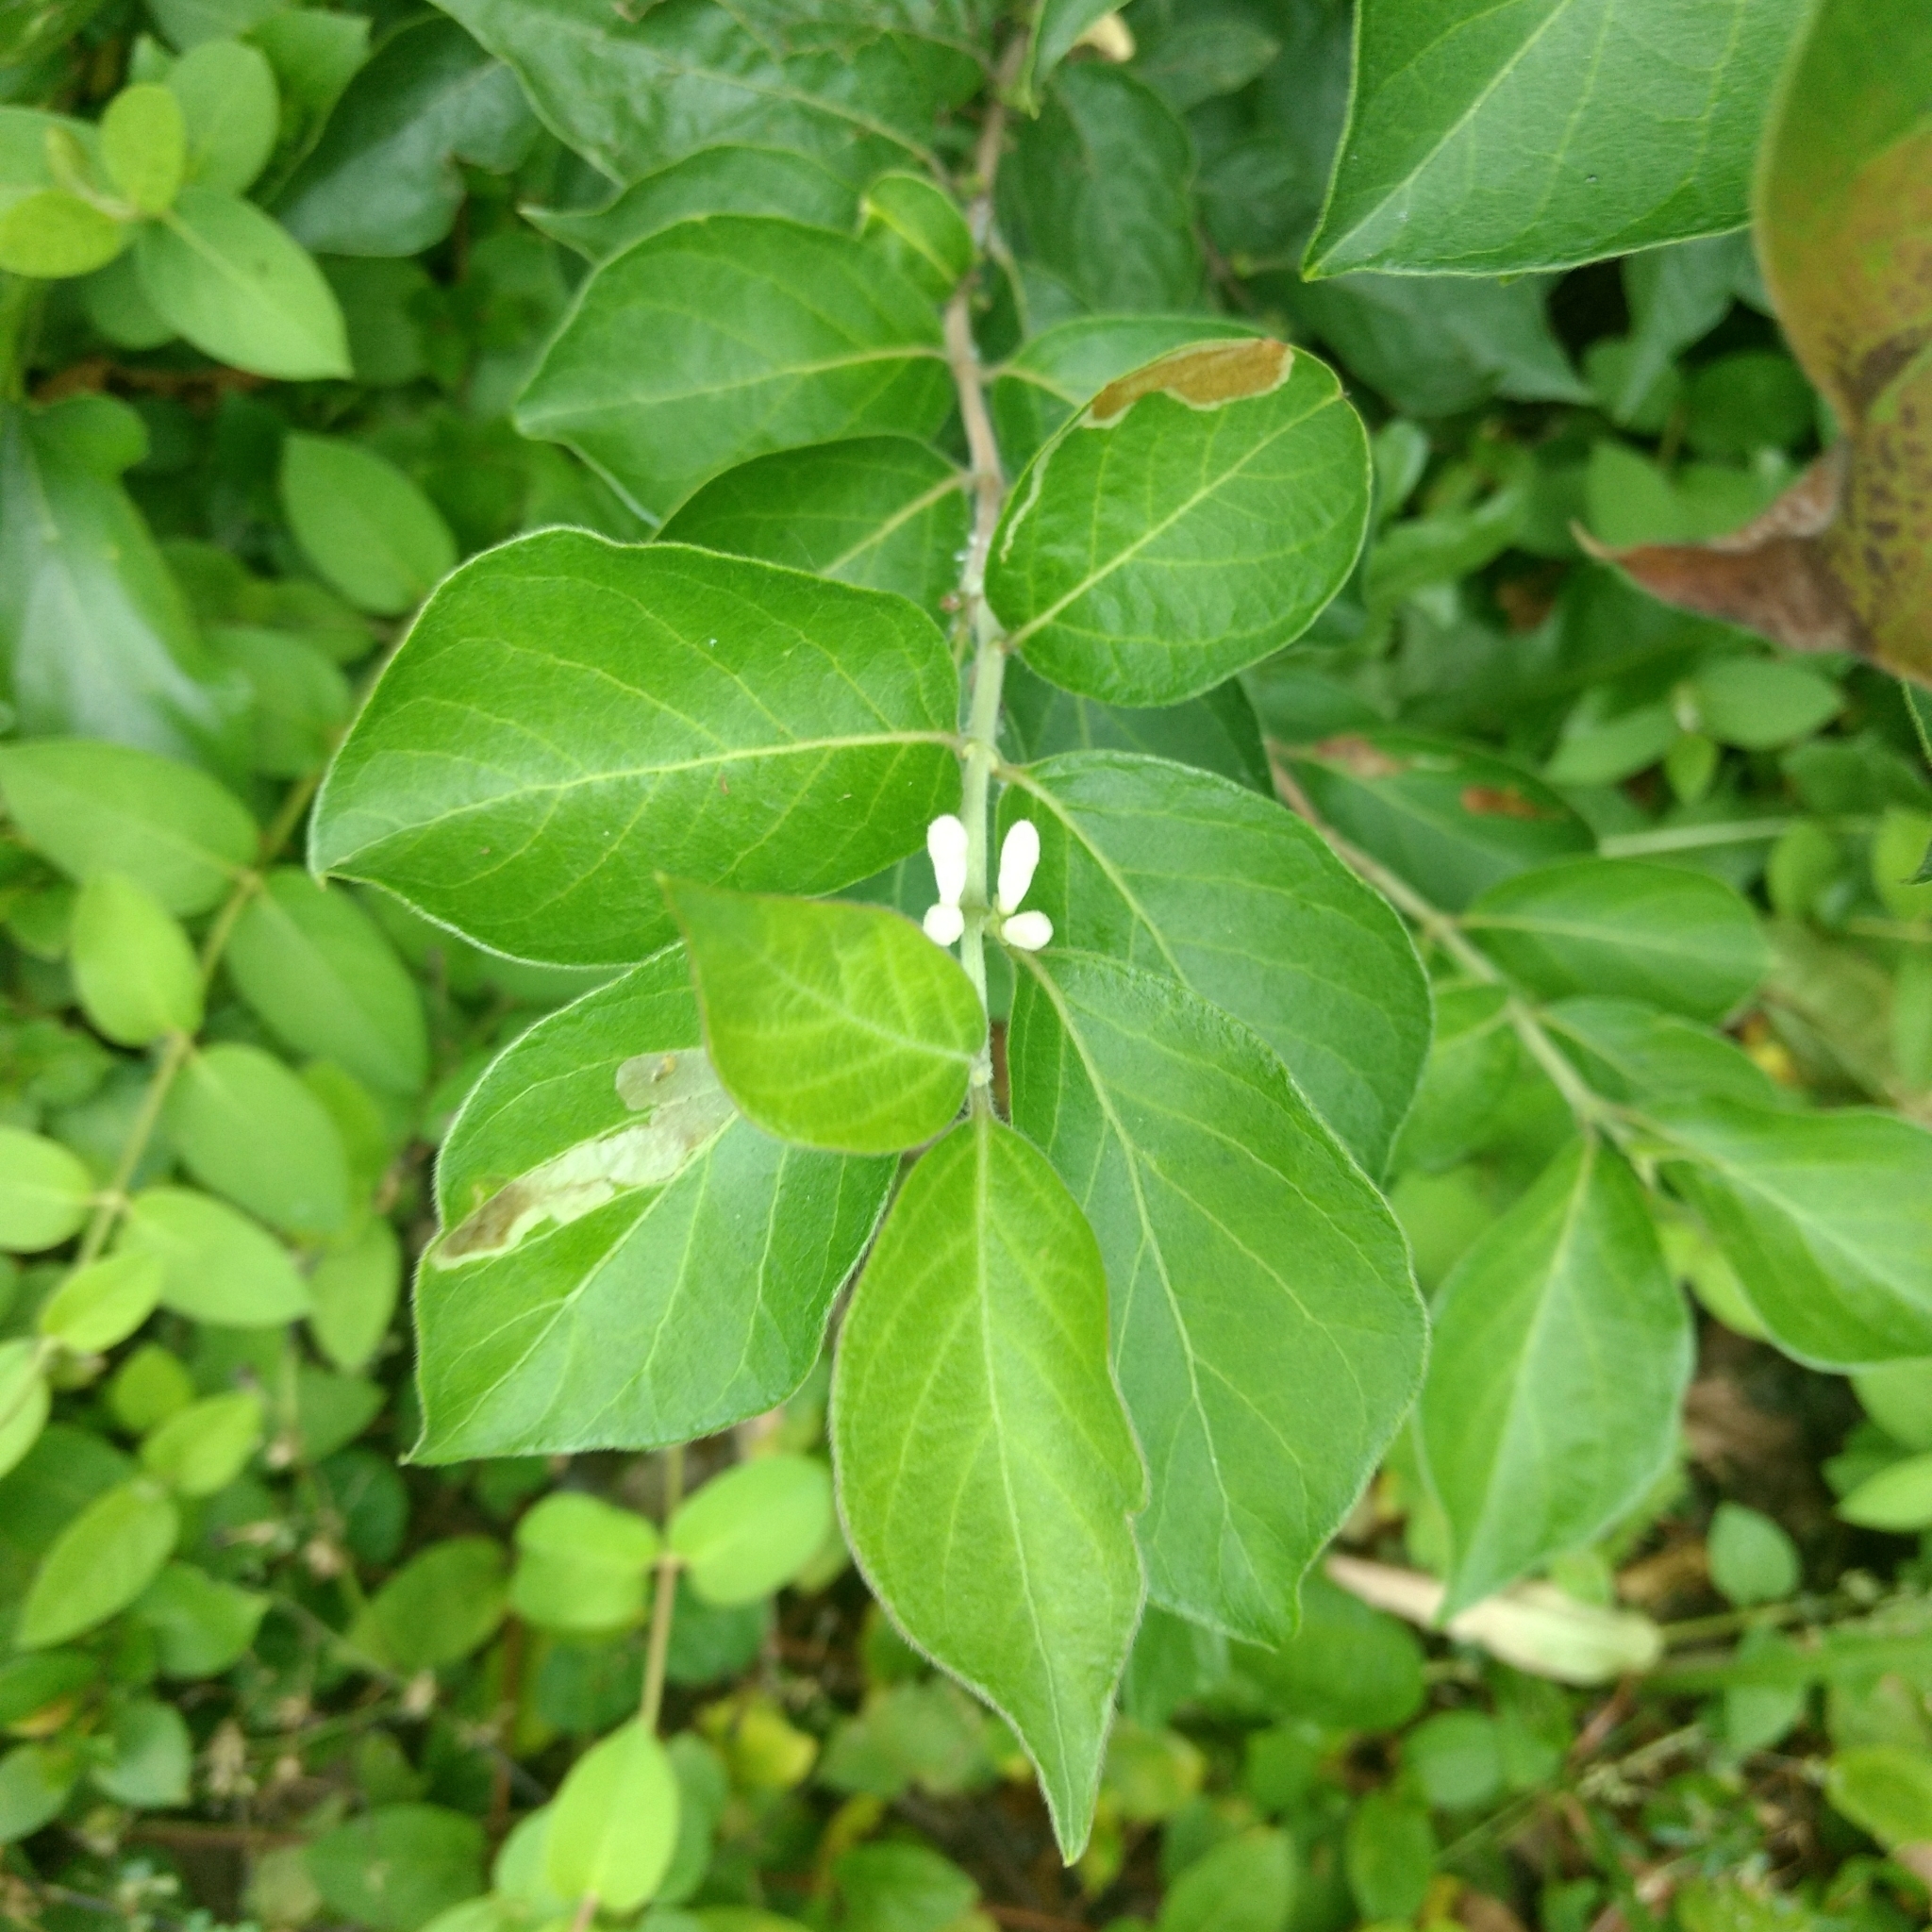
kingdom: Plantae
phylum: Tracheophyta
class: Magnoliopsida
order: Dipsacales
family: Caprifoliaceae
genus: Lonicera
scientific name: Lonicera maackii
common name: Amur honeysuckle
